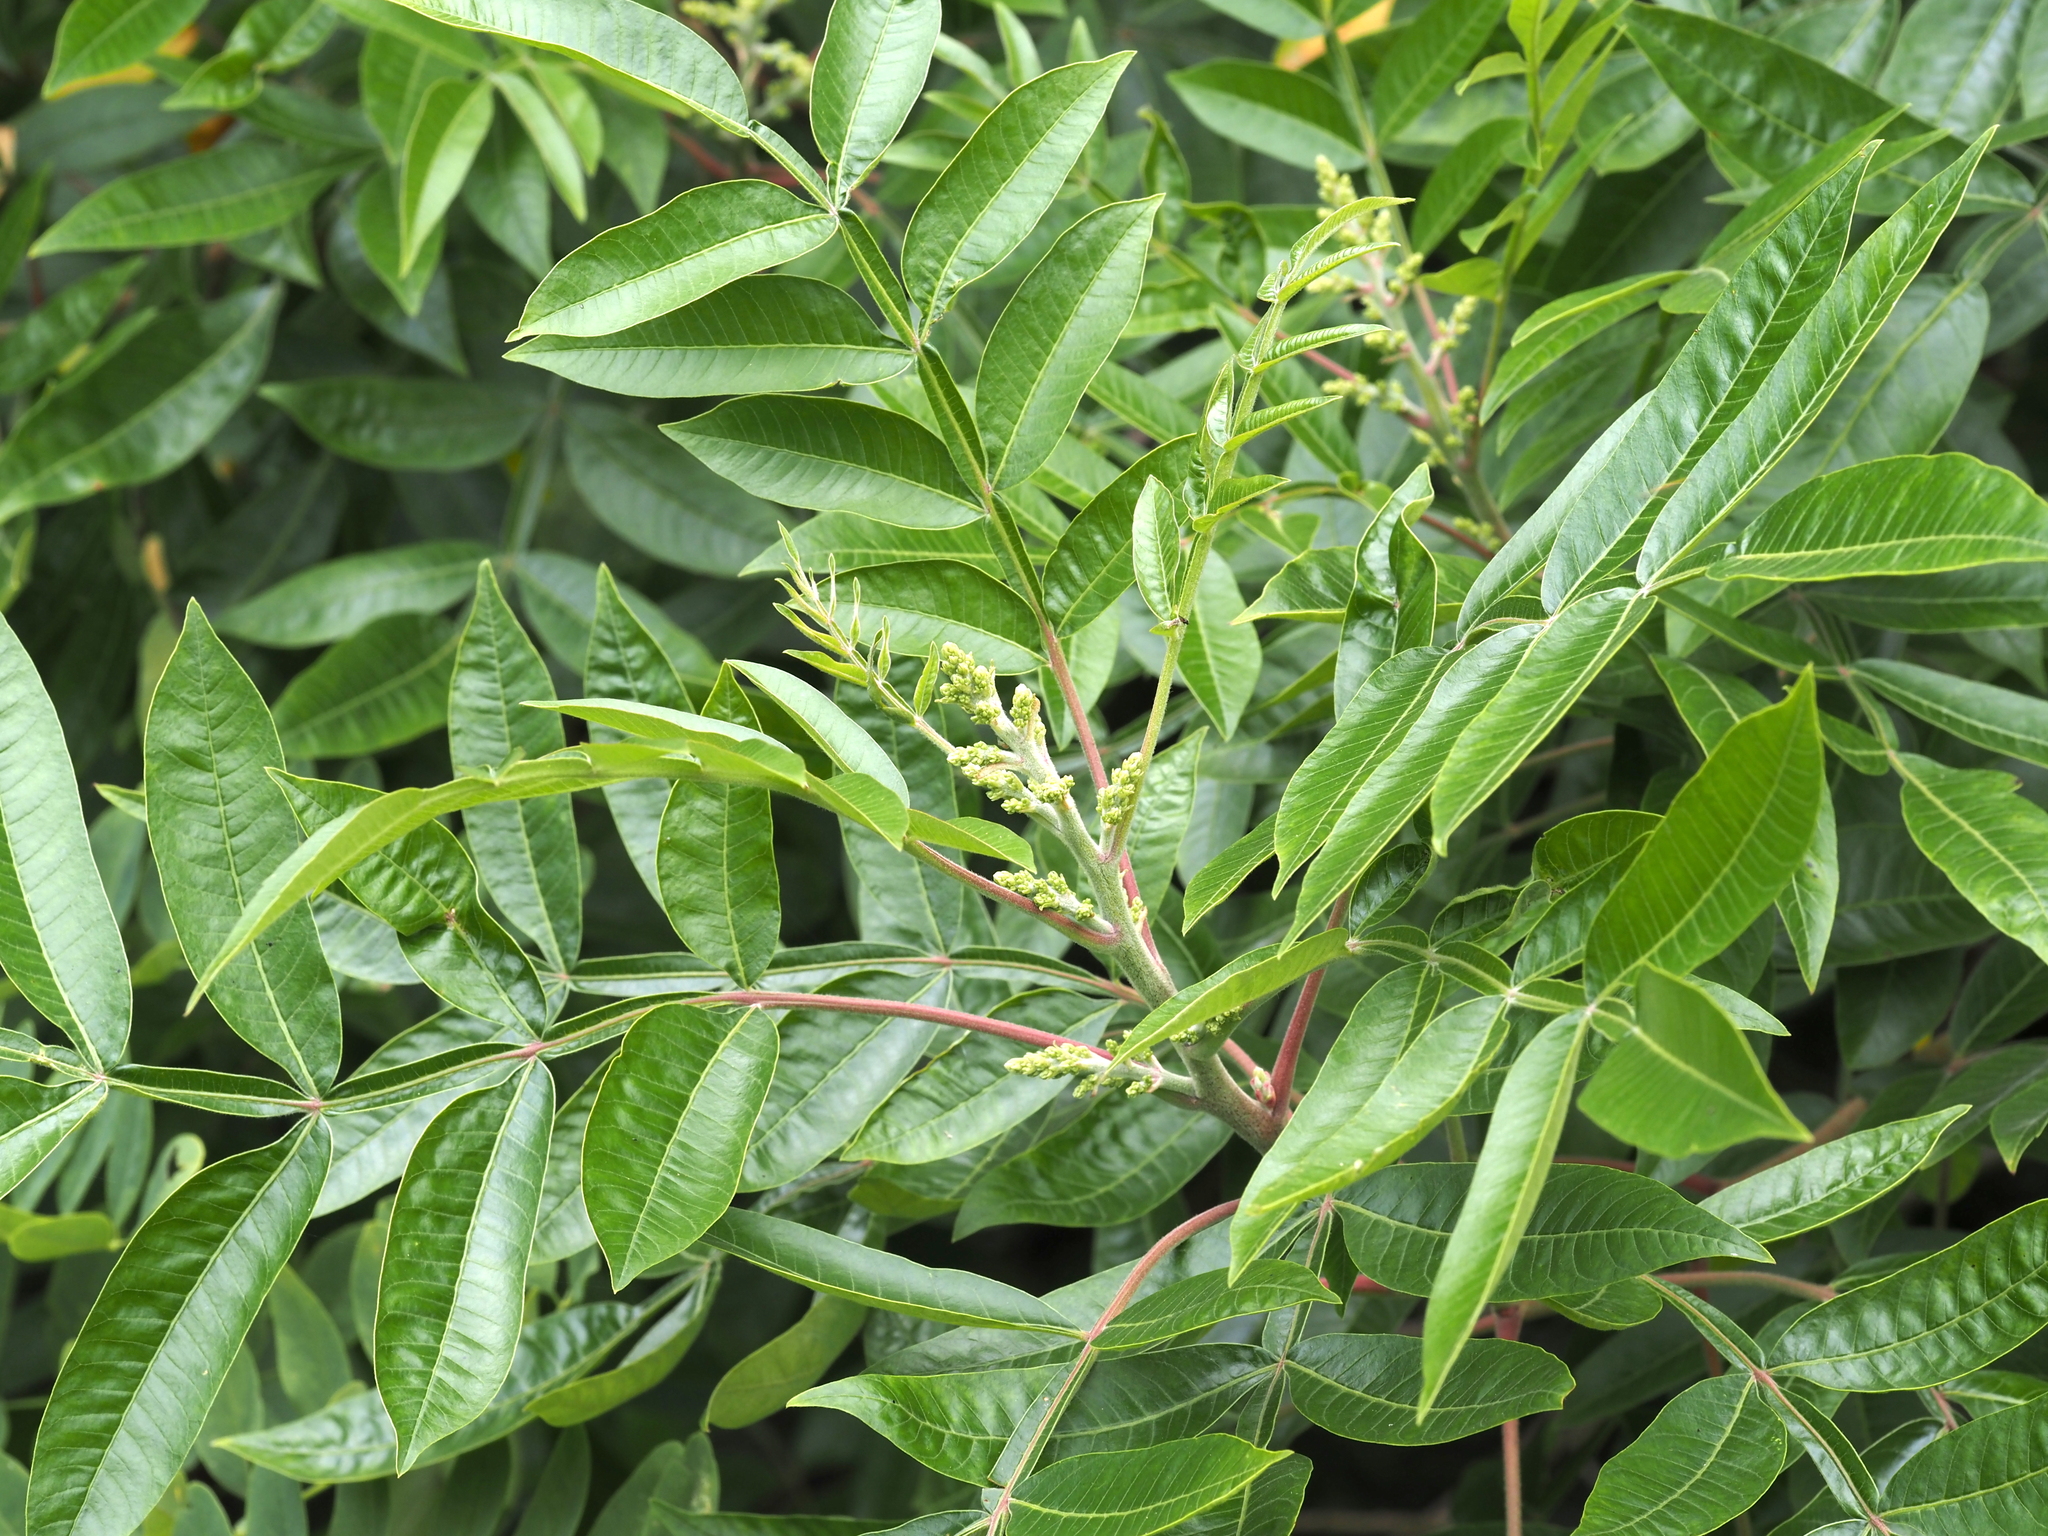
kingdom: Plantae
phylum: Tracheophyta
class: Magnoliopsida
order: Sapindales
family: Anacardiaceae
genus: Rhus
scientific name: Rhus copallina
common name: Shining sumac
